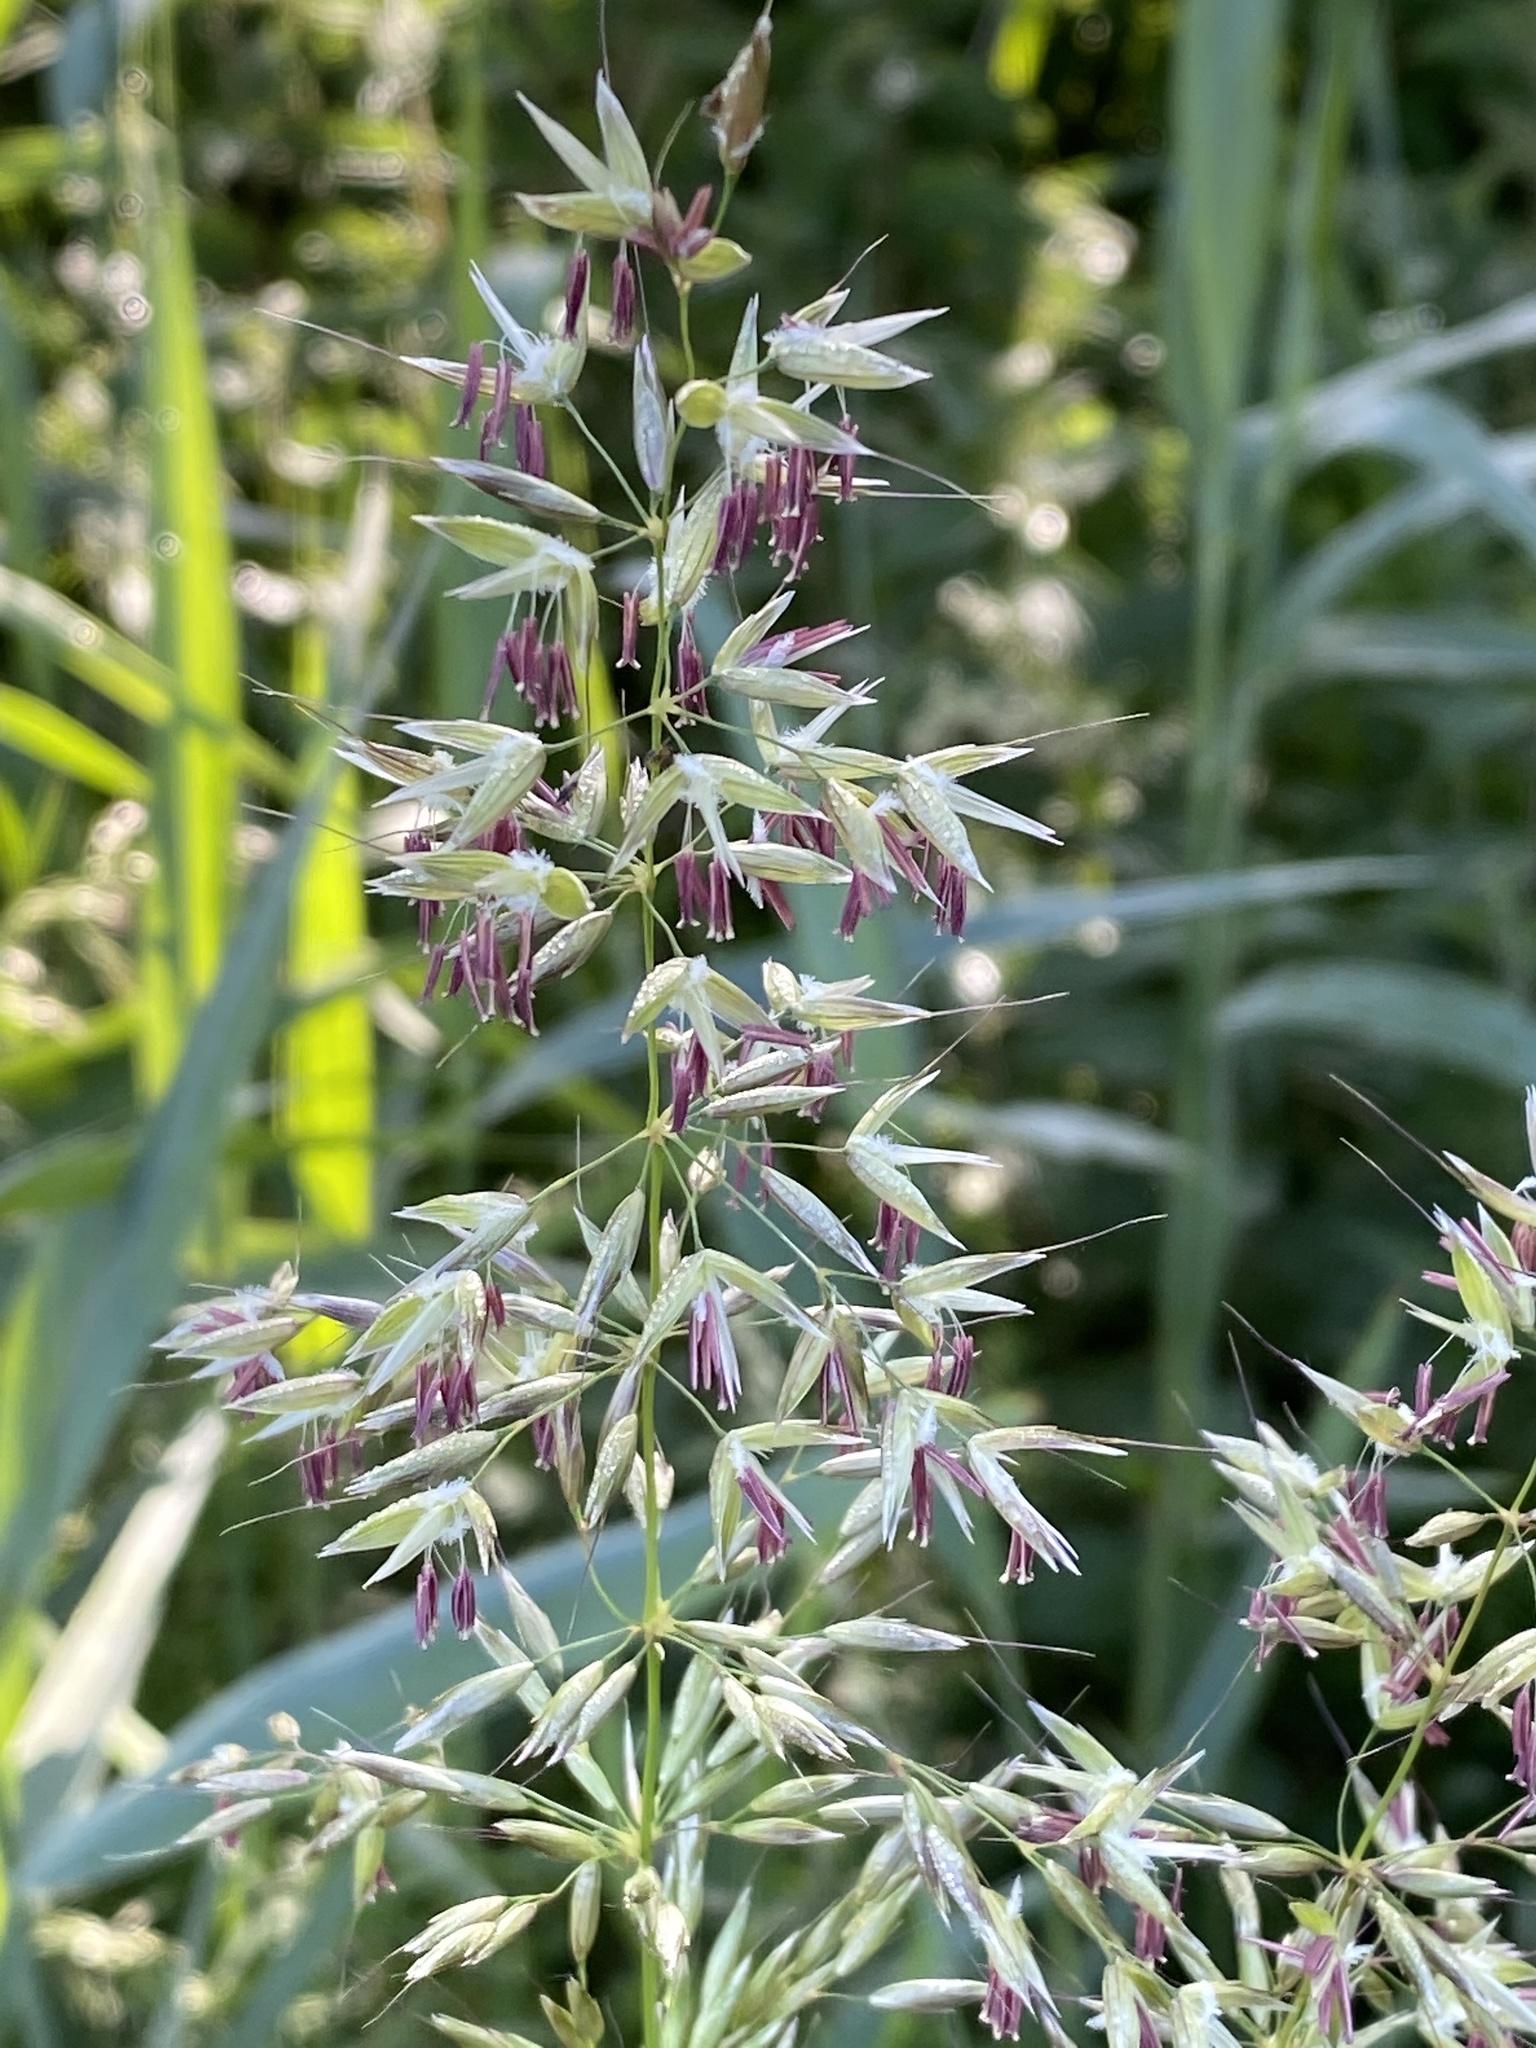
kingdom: Plantae
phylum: Tracheophyta
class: Liliopsida
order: Poales
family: Poaceae
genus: Arrhenatherum
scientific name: Arrhenatherum elatius
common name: Tall oatgrass
